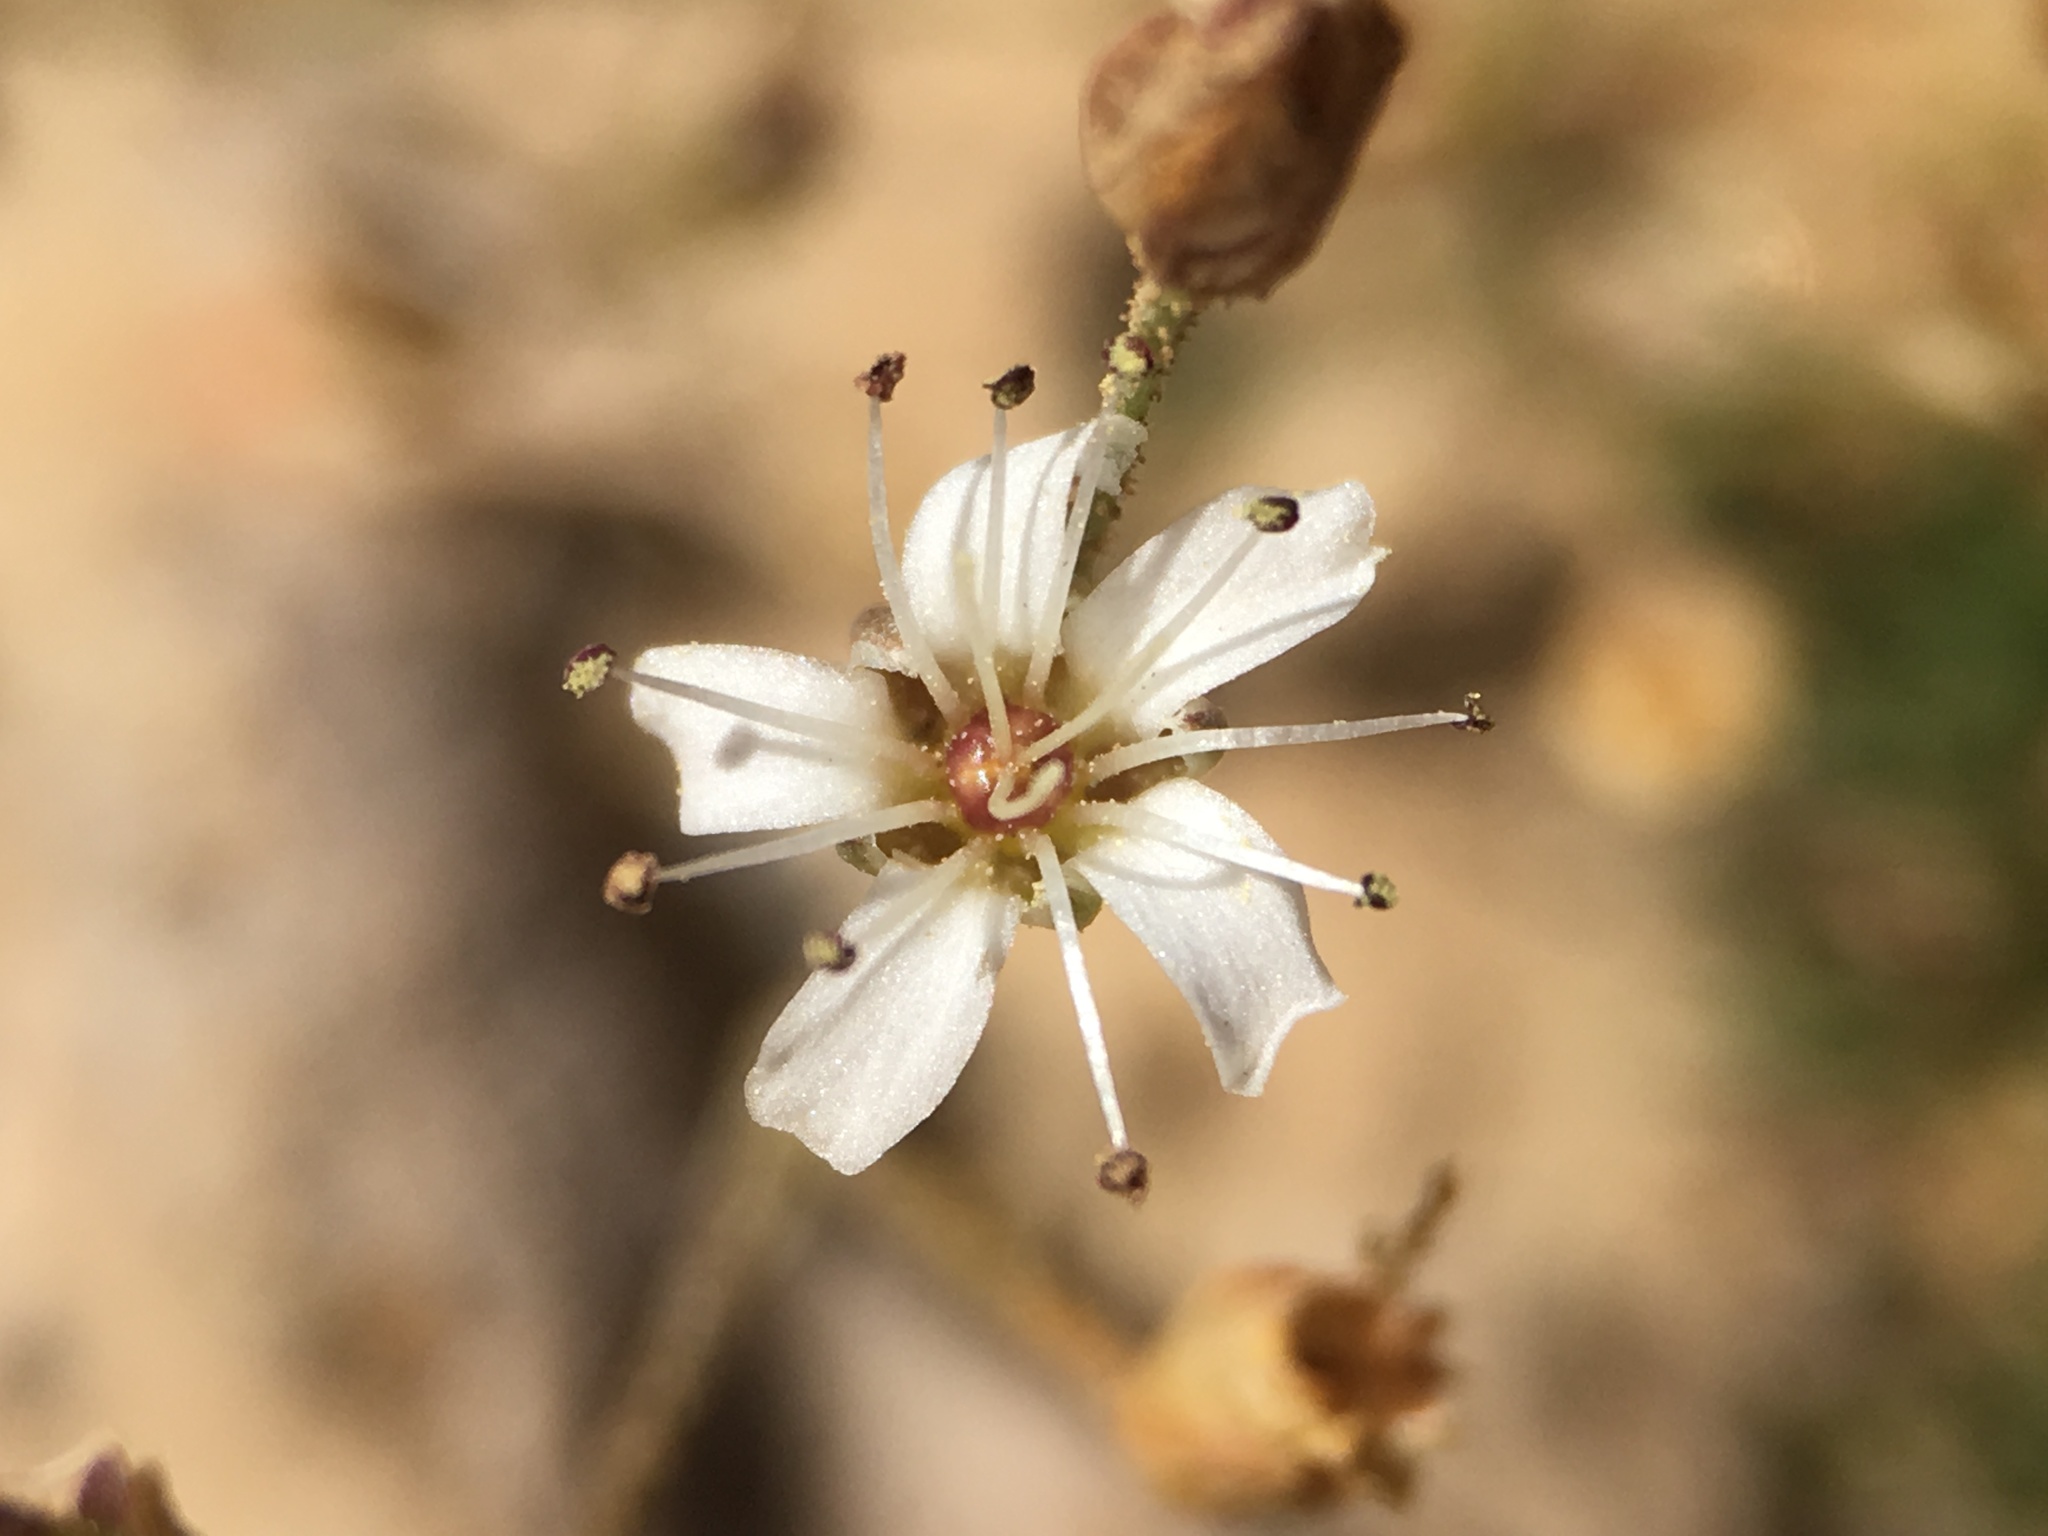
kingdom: Plantae
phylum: Tracheophyta
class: Magnoliopsida
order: Caryophyllales
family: Caryophyllaceae
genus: Eremogone
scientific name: Eremogone kingii
